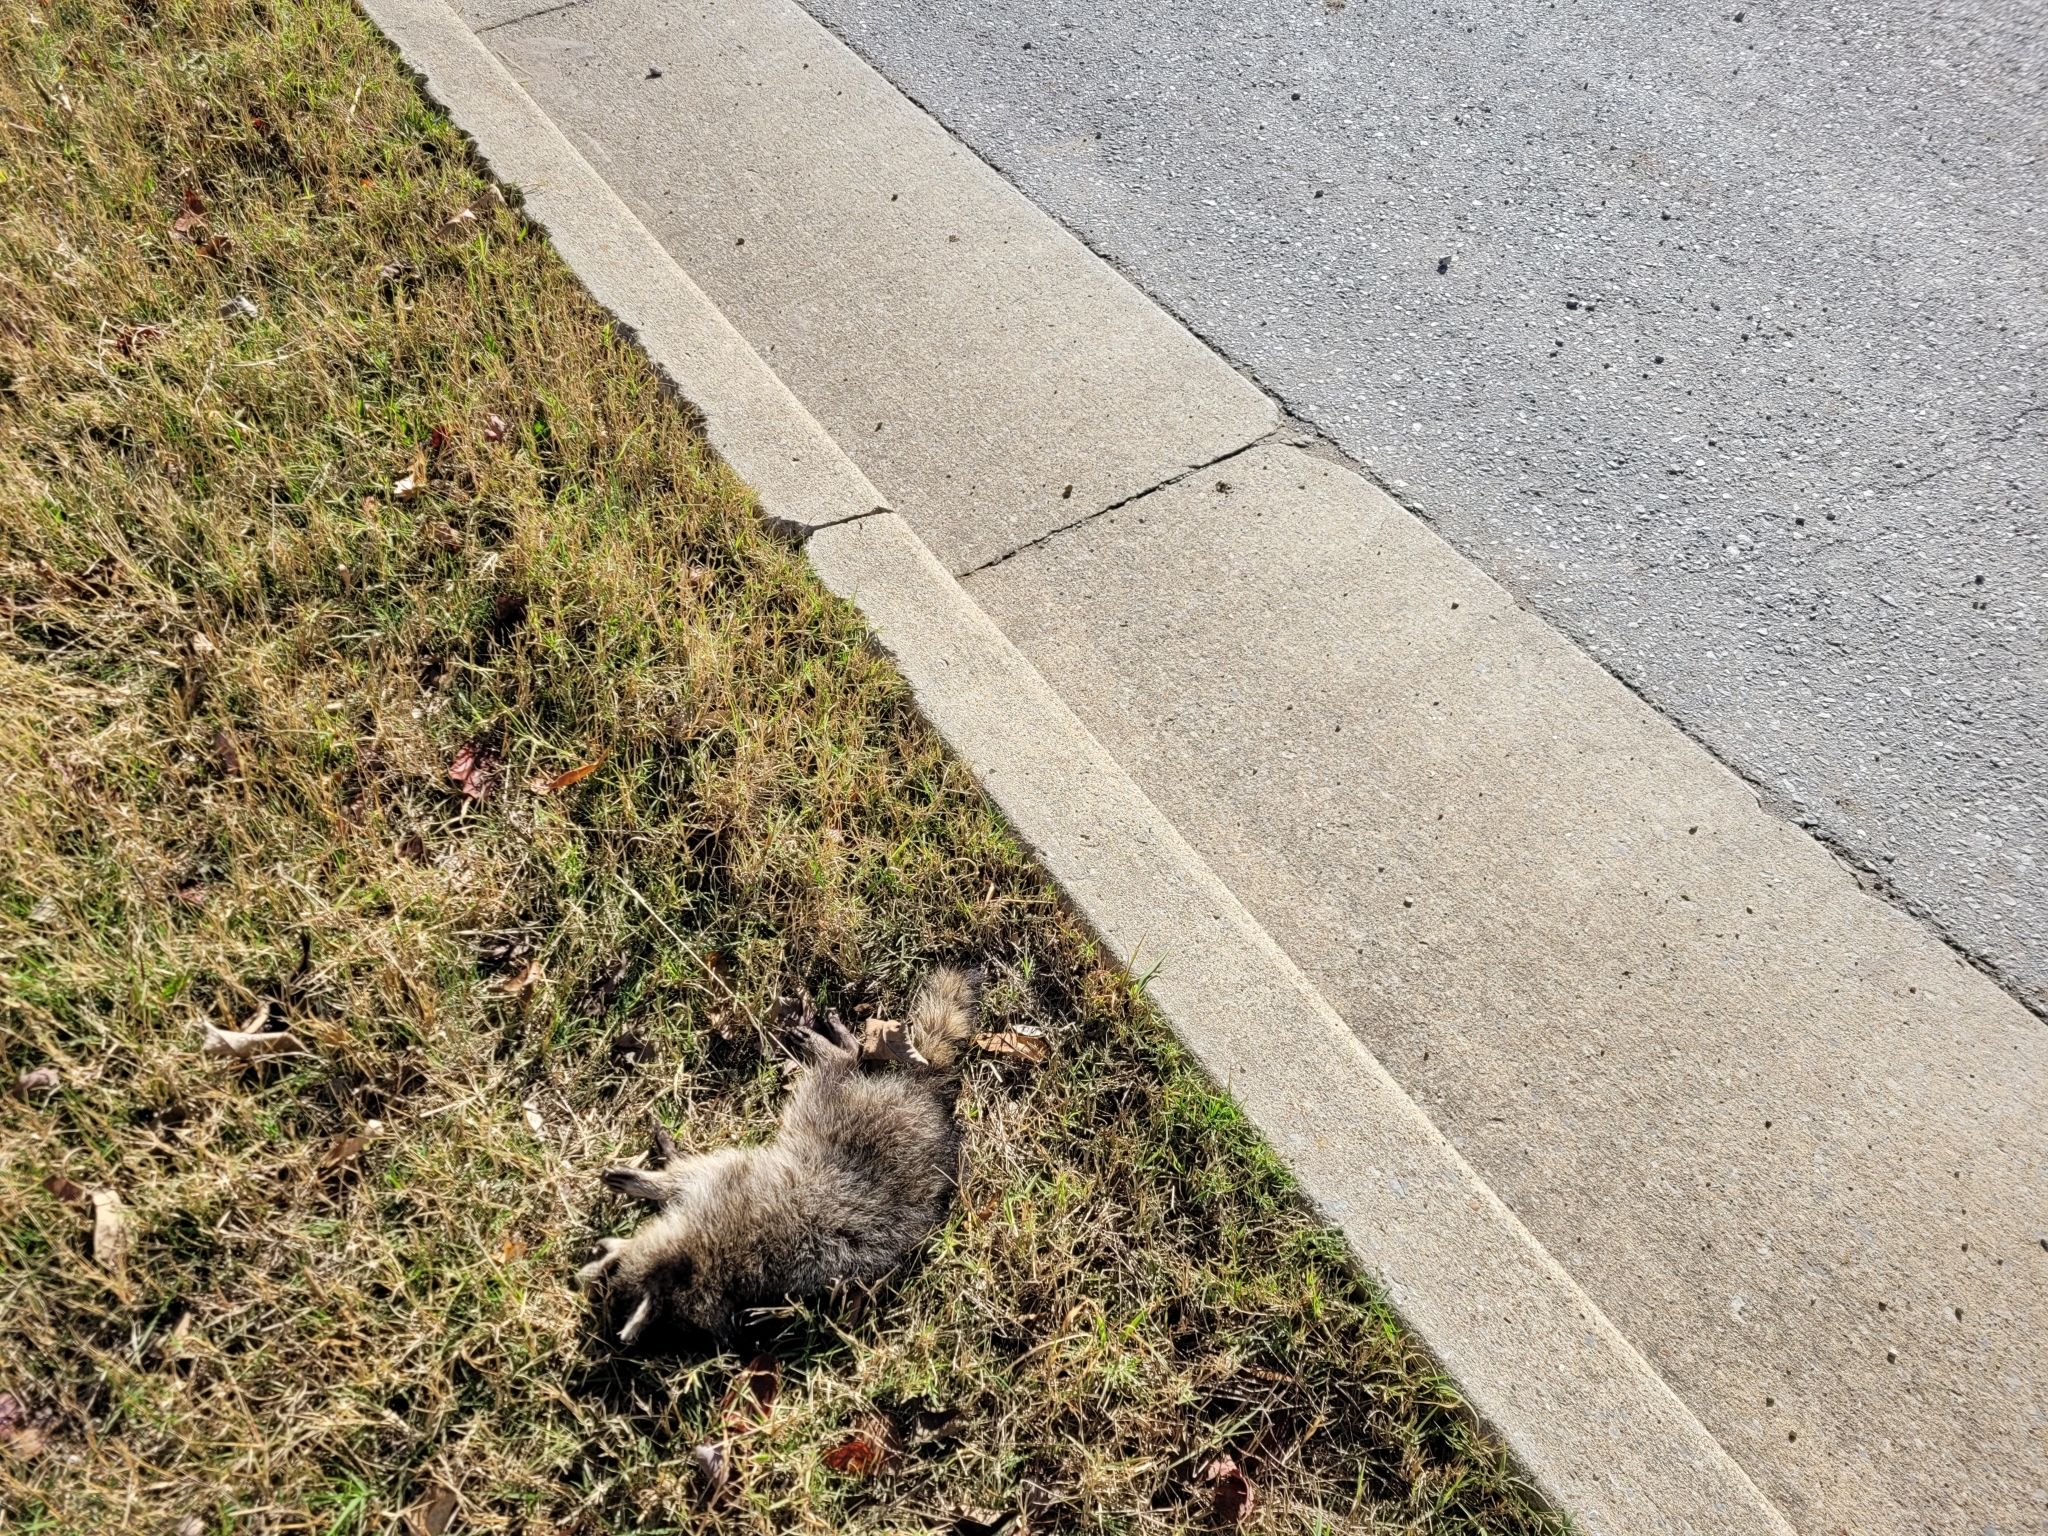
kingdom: Animalia
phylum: Chordata
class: Mammalia
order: Carnivora
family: Procyonidae
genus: Procyon
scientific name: Procyon lotor
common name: Raccoon
